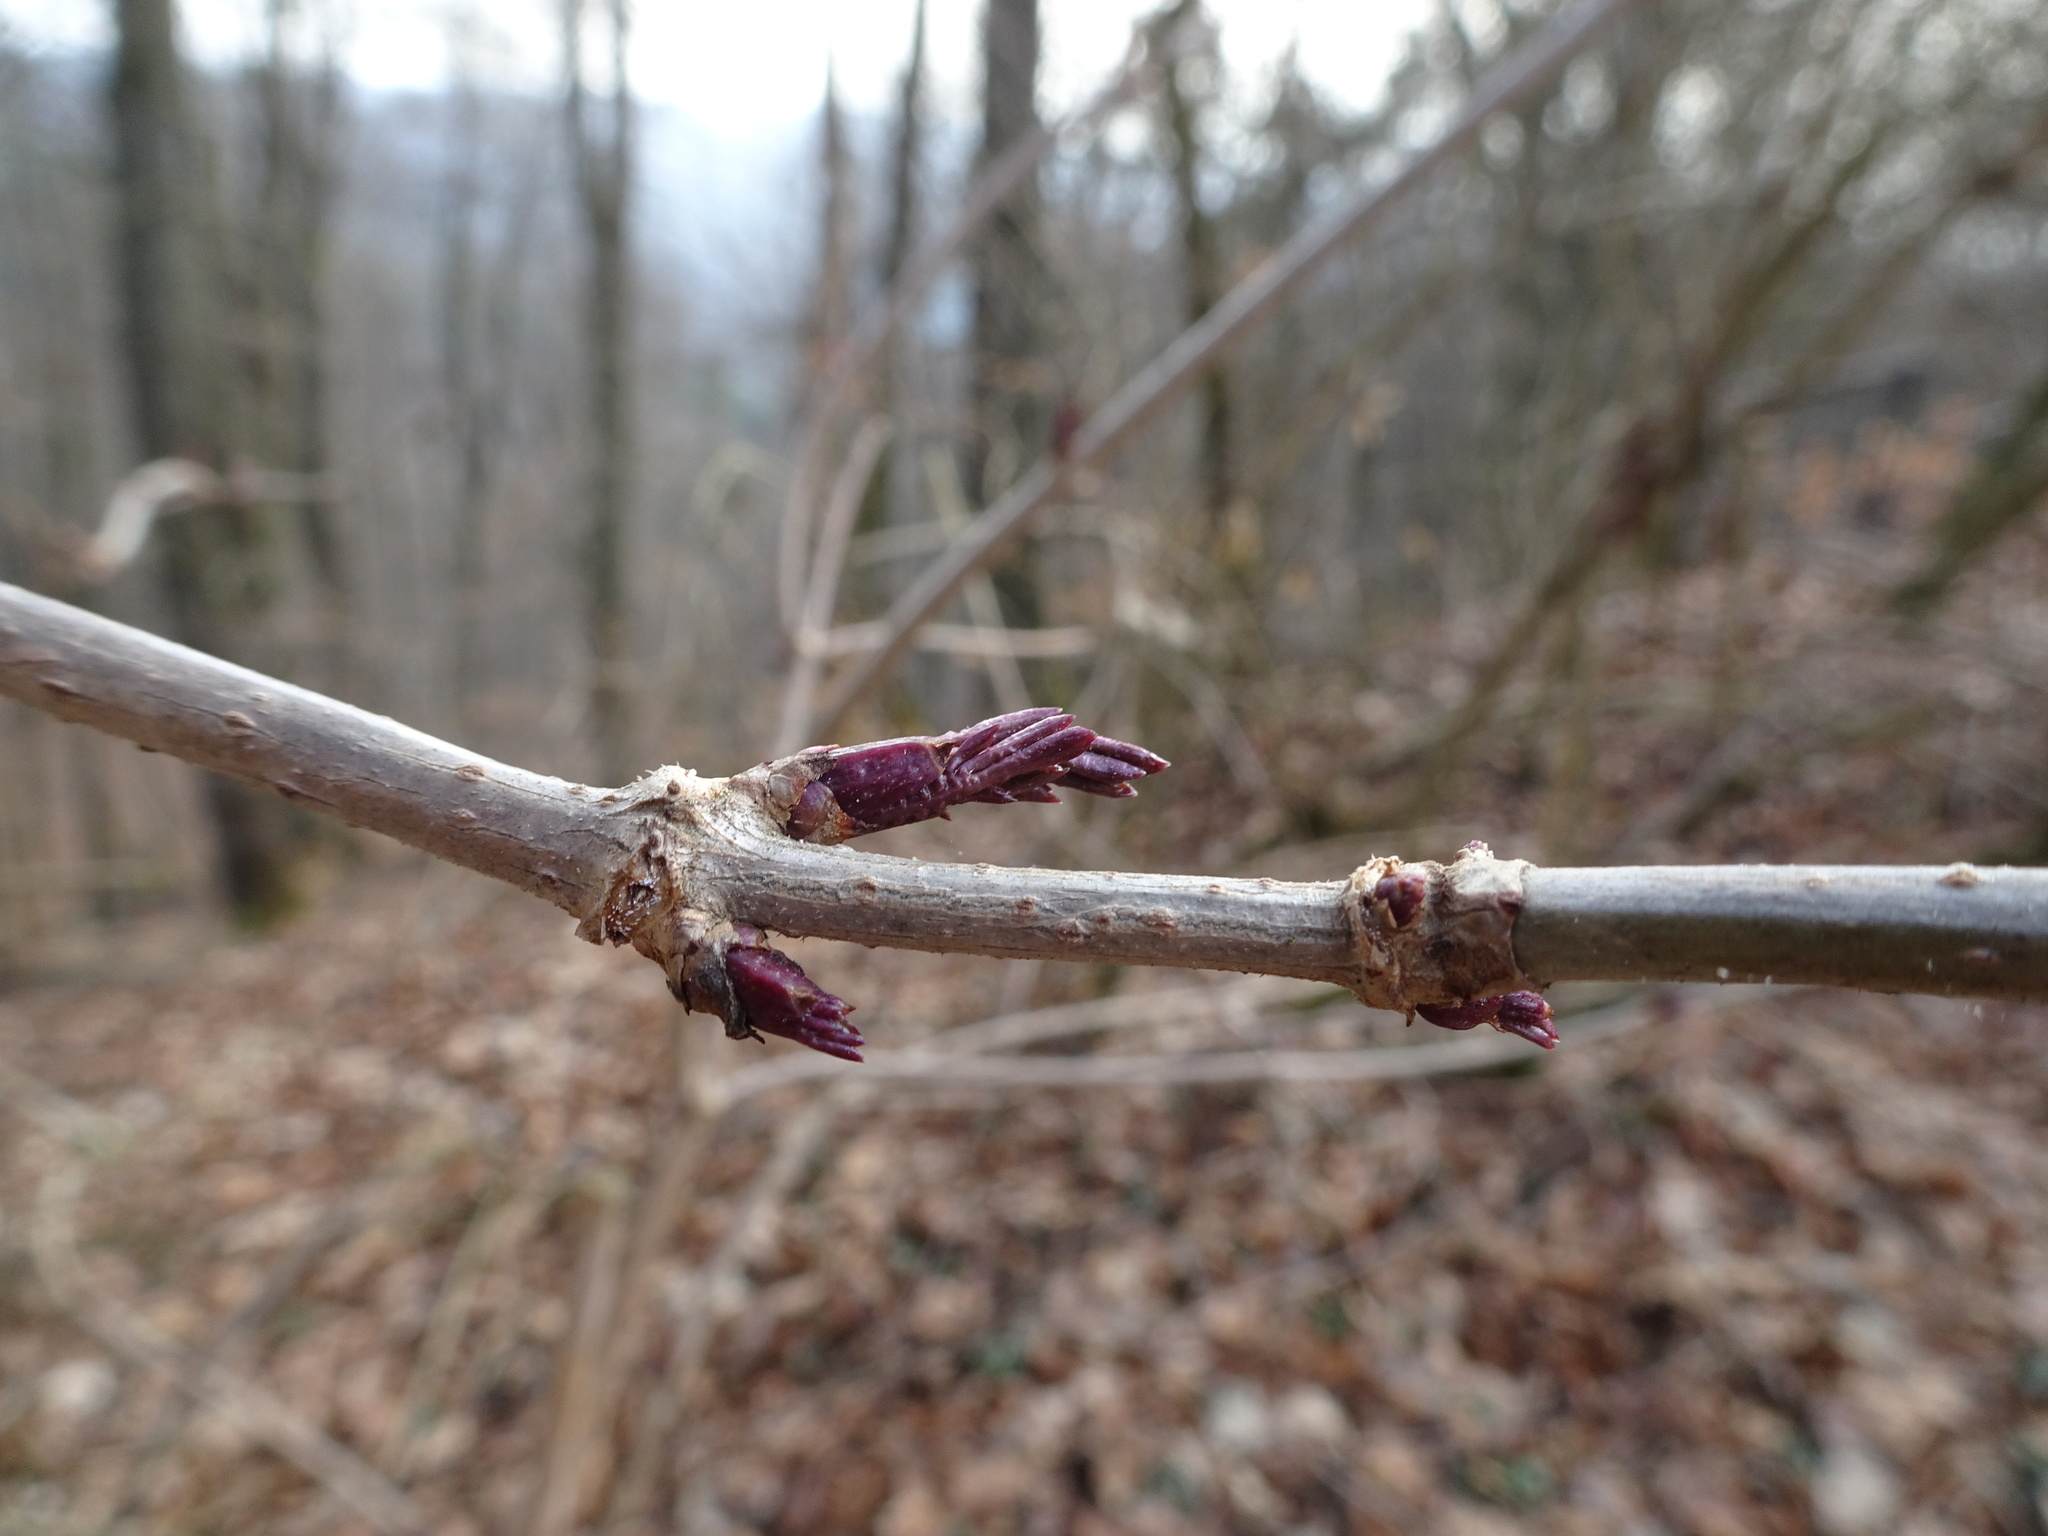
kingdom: Plantae
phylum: Tracheophyta
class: Magnoliopsida
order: Dipsacales
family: Viburnaceae
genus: Sambucus
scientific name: Sambucus nigra
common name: Elder
